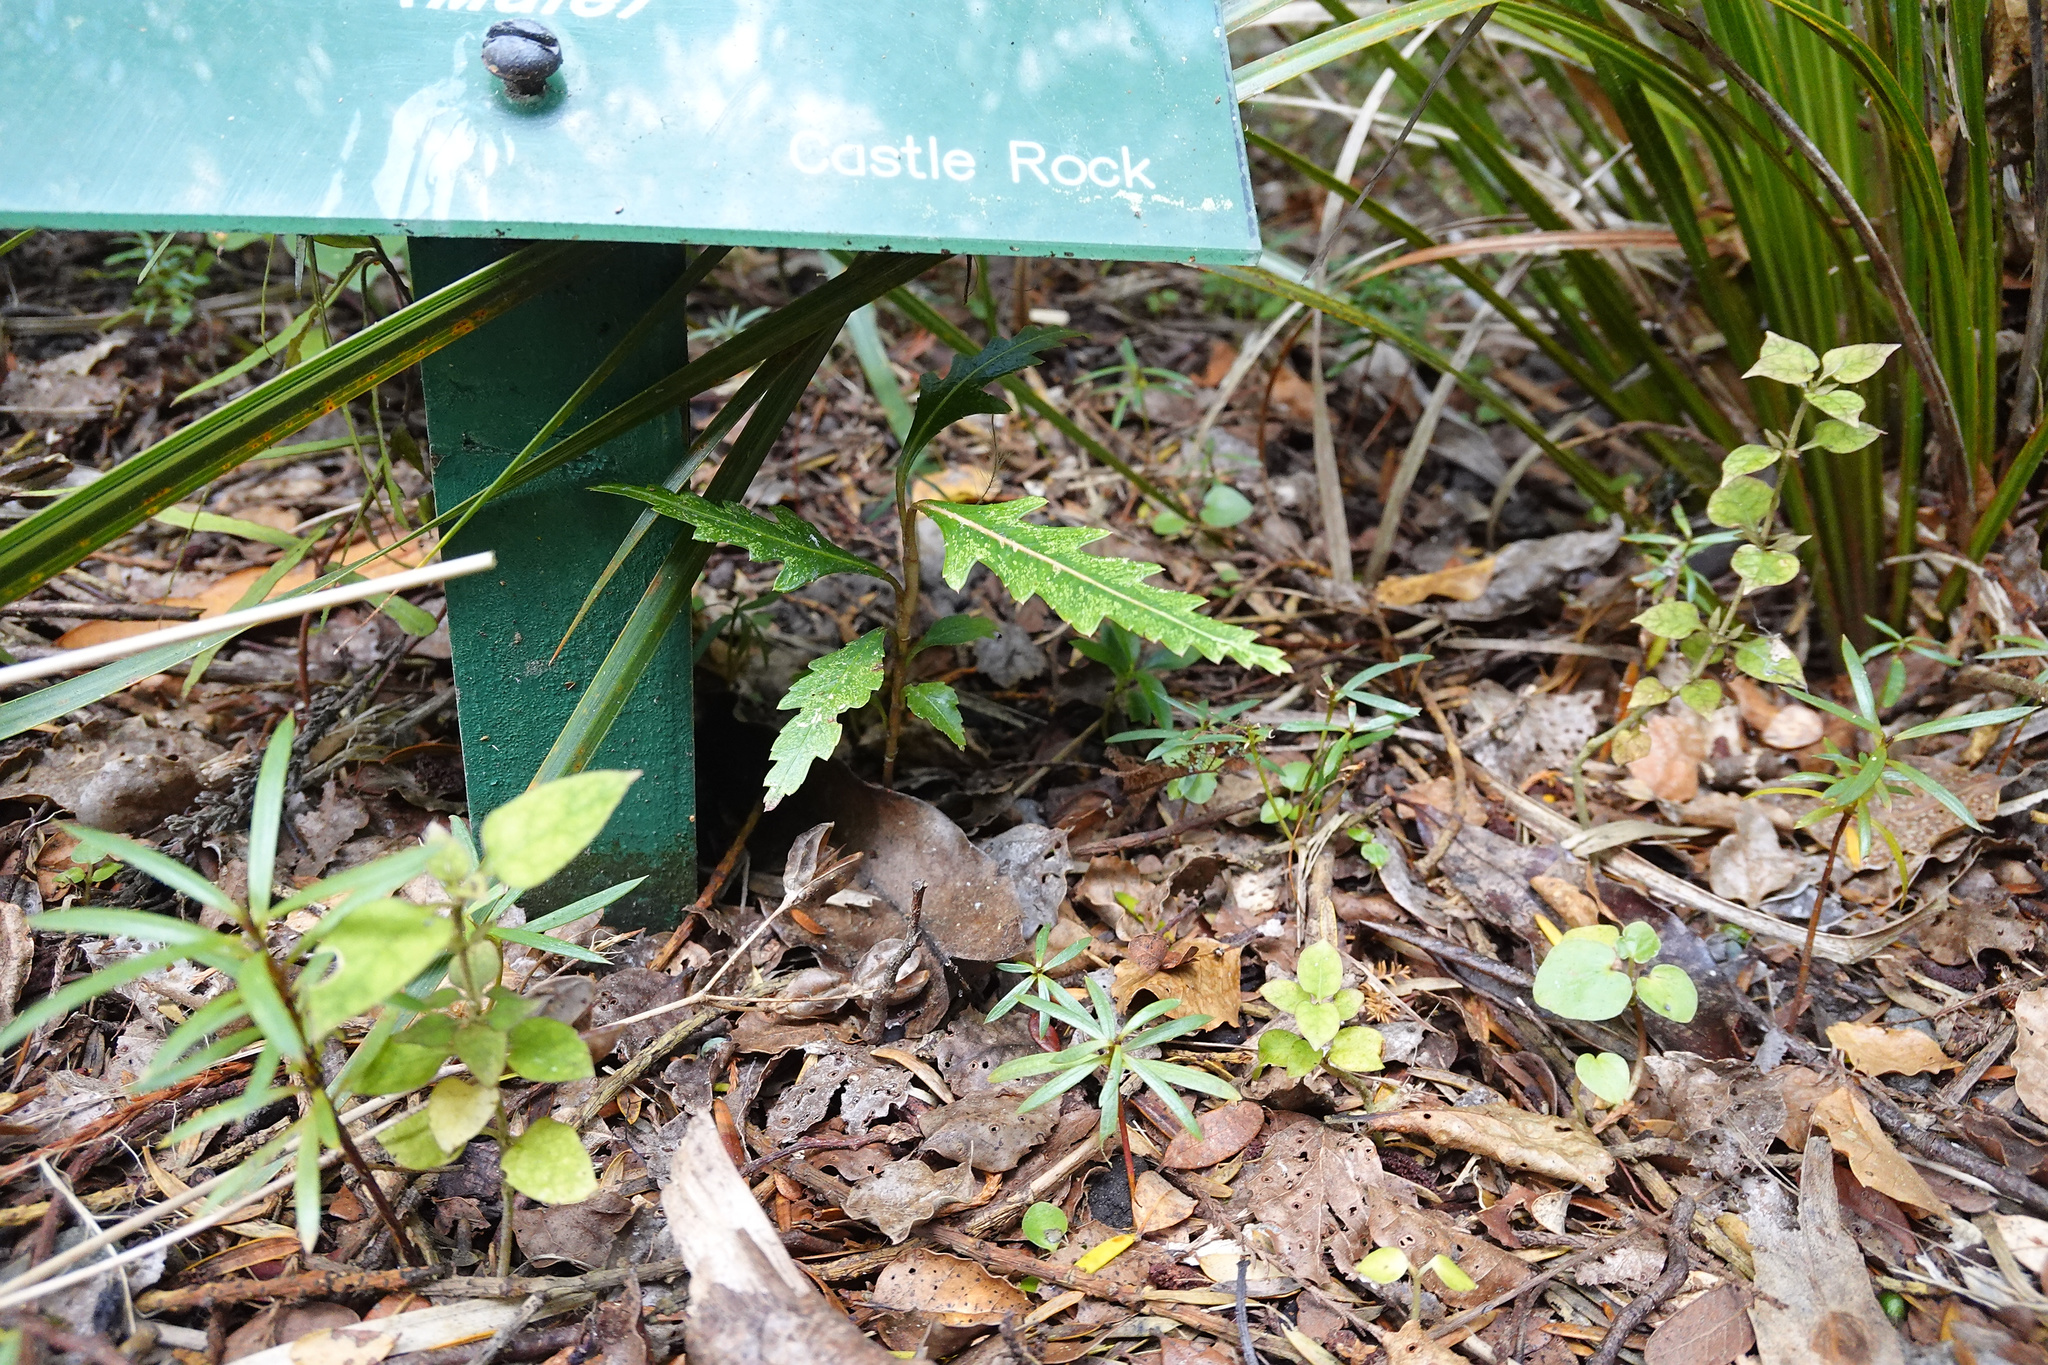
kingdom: Plantae
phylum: Tracheophyta
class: Magnoliopsida
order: Apiales
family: Araliaceae
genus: Pseudopanax
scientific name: Pseudopanax crassifolius
